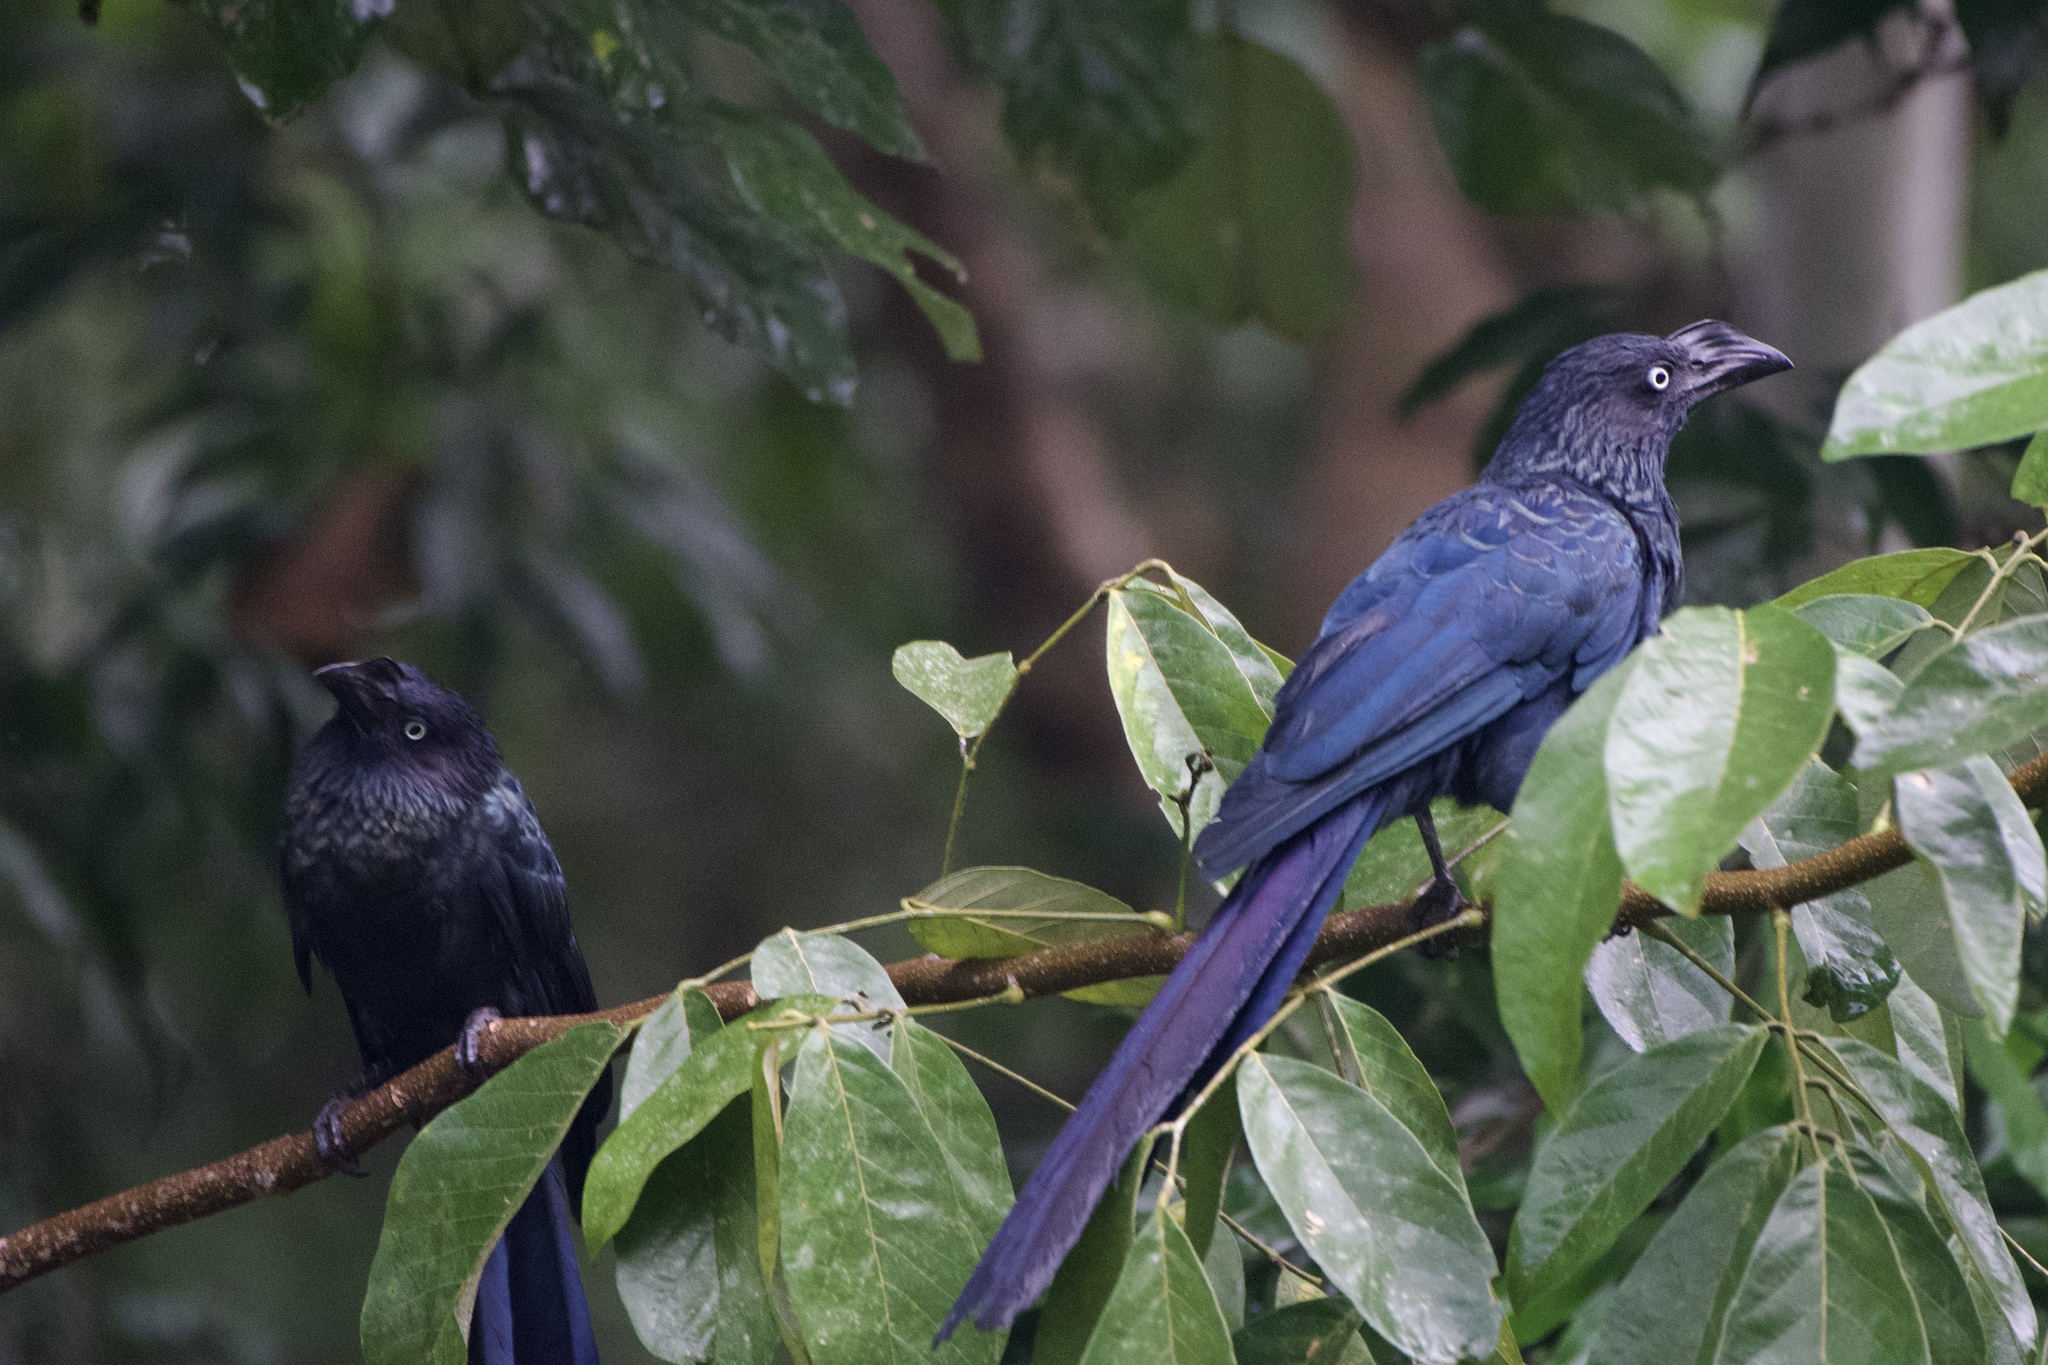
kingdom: Animalia
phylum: Chordata
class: Aves
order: Cuculiformes
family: Cuculidae
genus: Crotophaga
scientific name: Crotophaga major
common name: Greater ani
